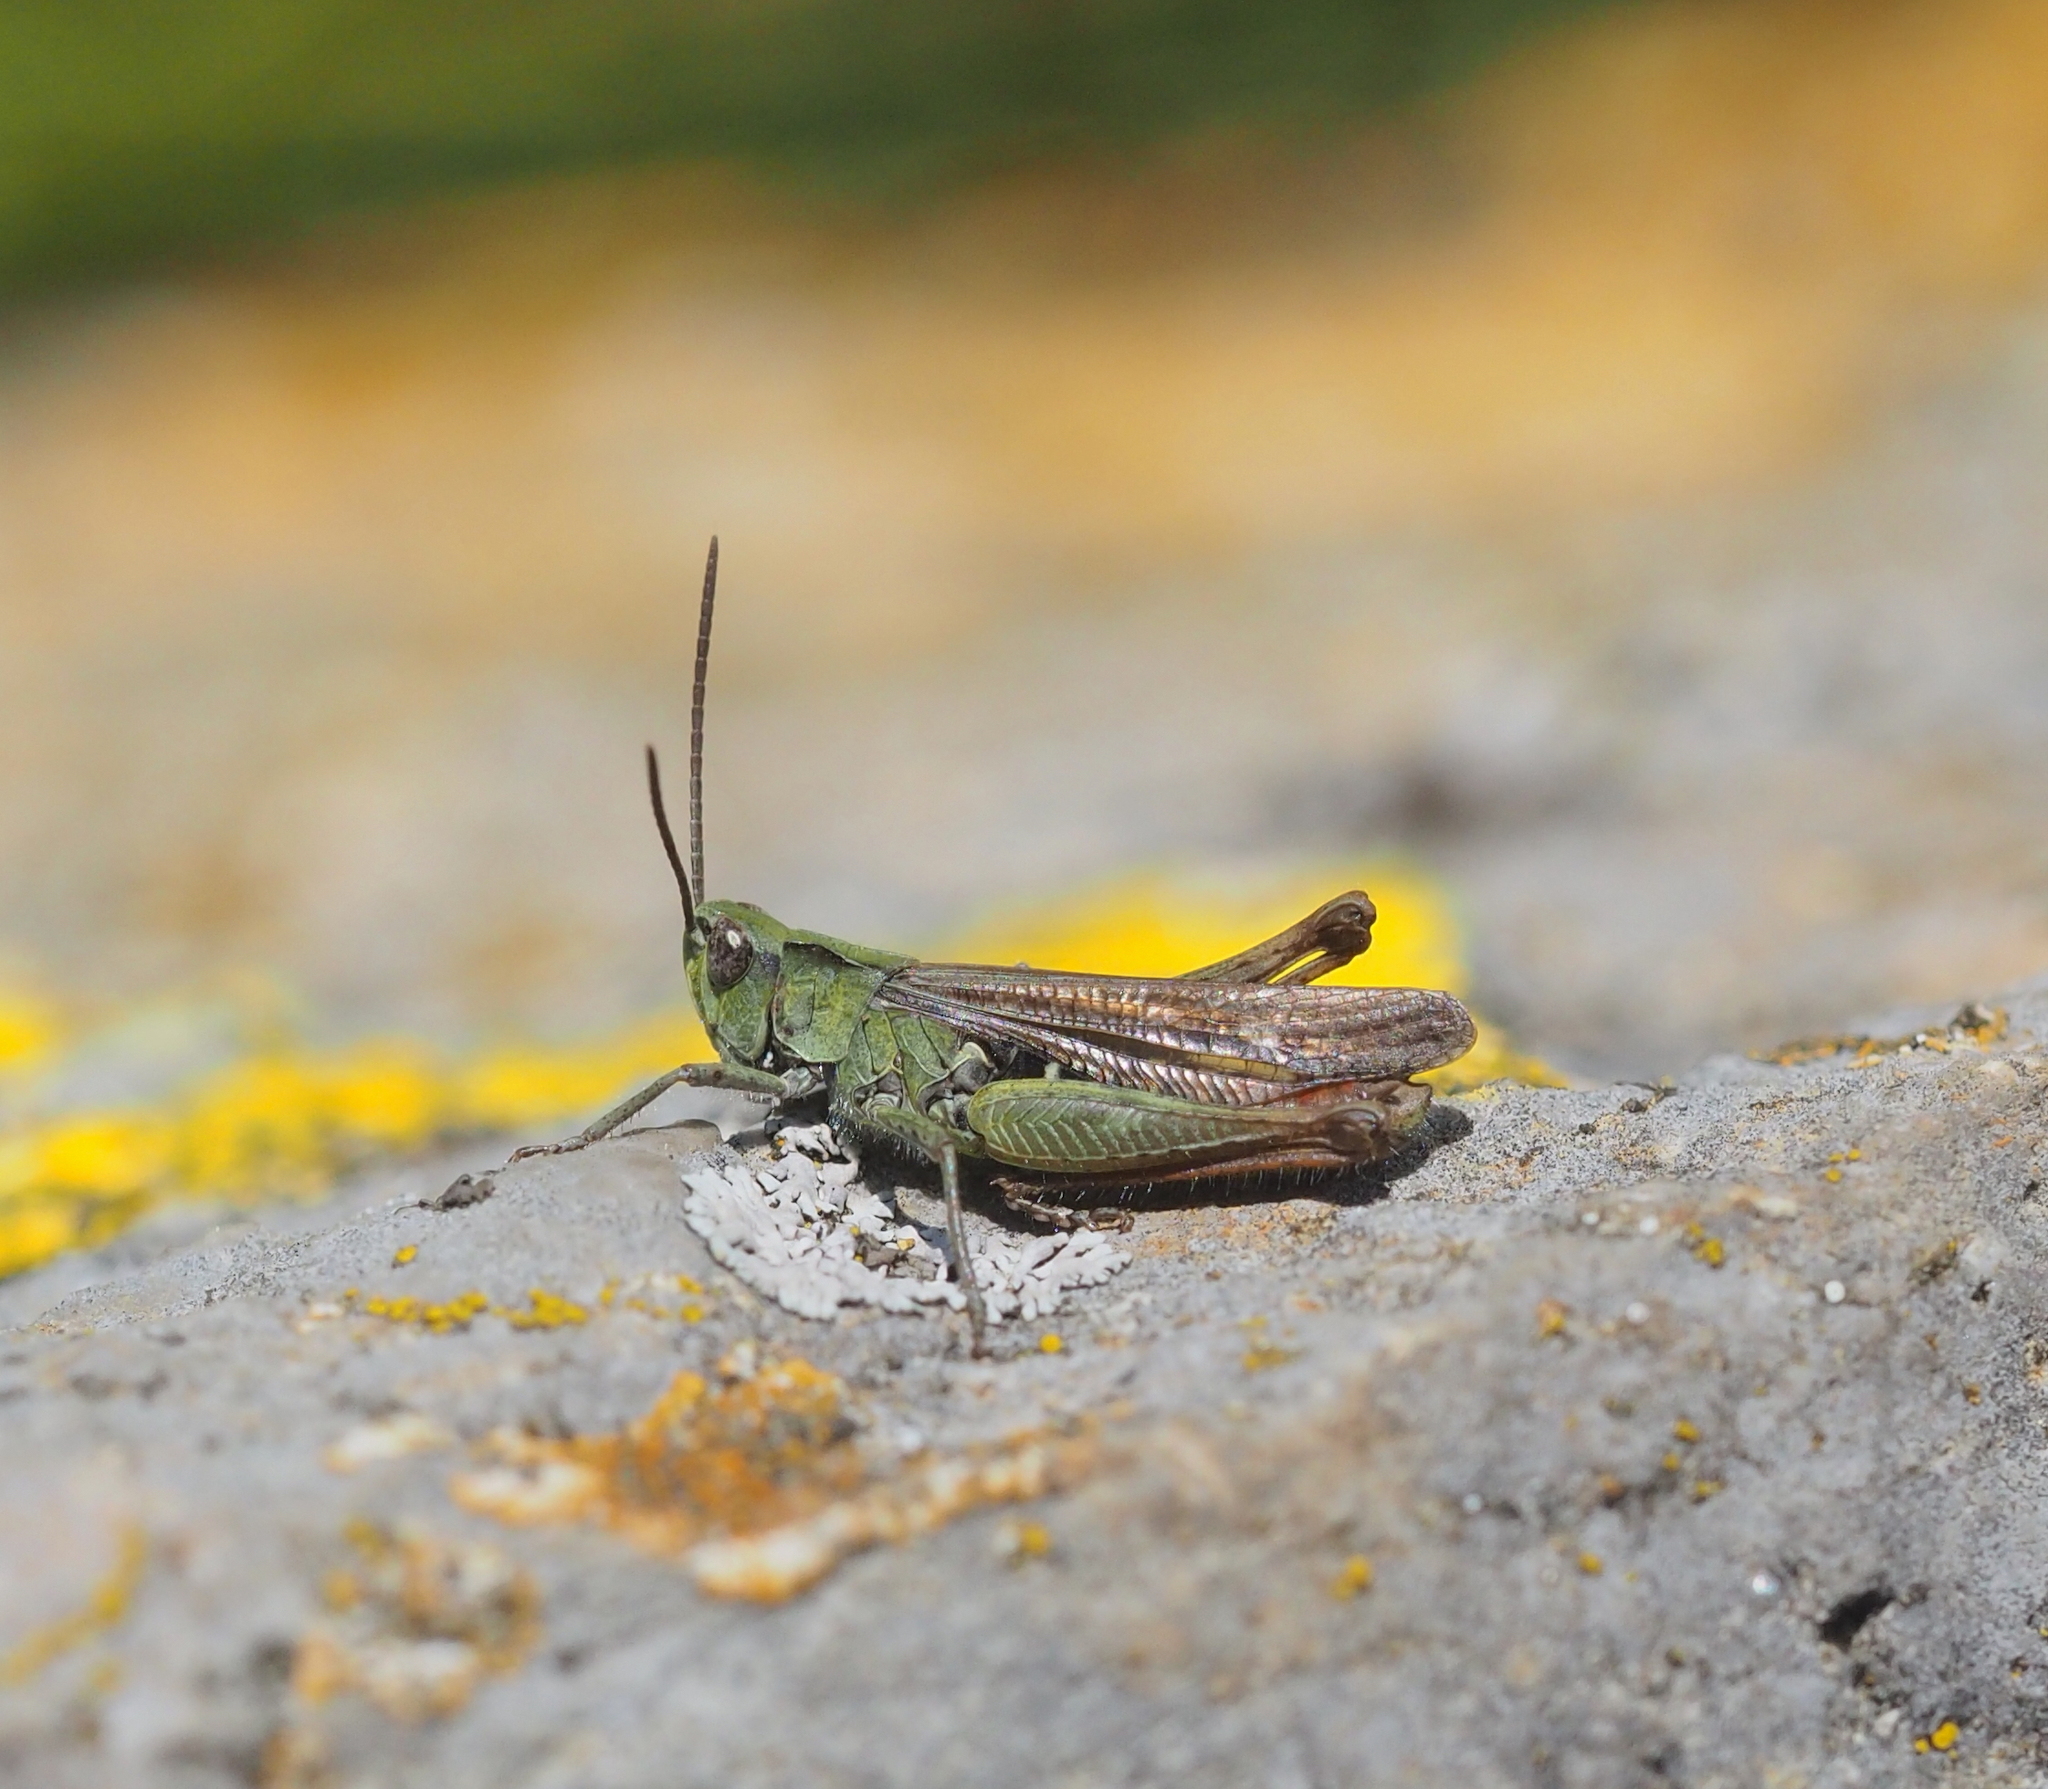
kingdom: Animalia
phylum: Arthropoda
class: Insecta
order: Orthoptera
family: Acrididae
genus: Chorthippus
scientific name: Chorthippus biguttulus
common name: Bow-winged grasshopper
